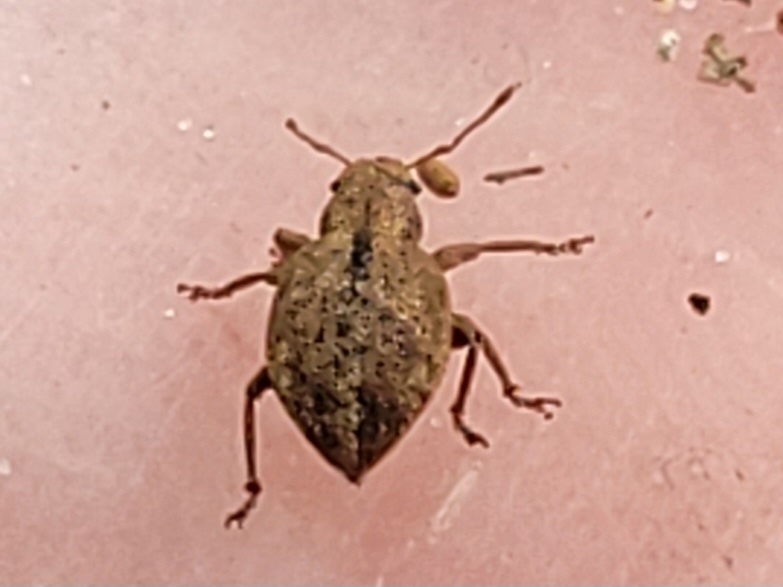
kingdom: Animalia
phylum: Arthropoda
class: Insecta
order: Coleoptera
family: Curculionidae
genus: Strophosoma
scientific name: Strophosoma melanogrammum
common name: Weevil
